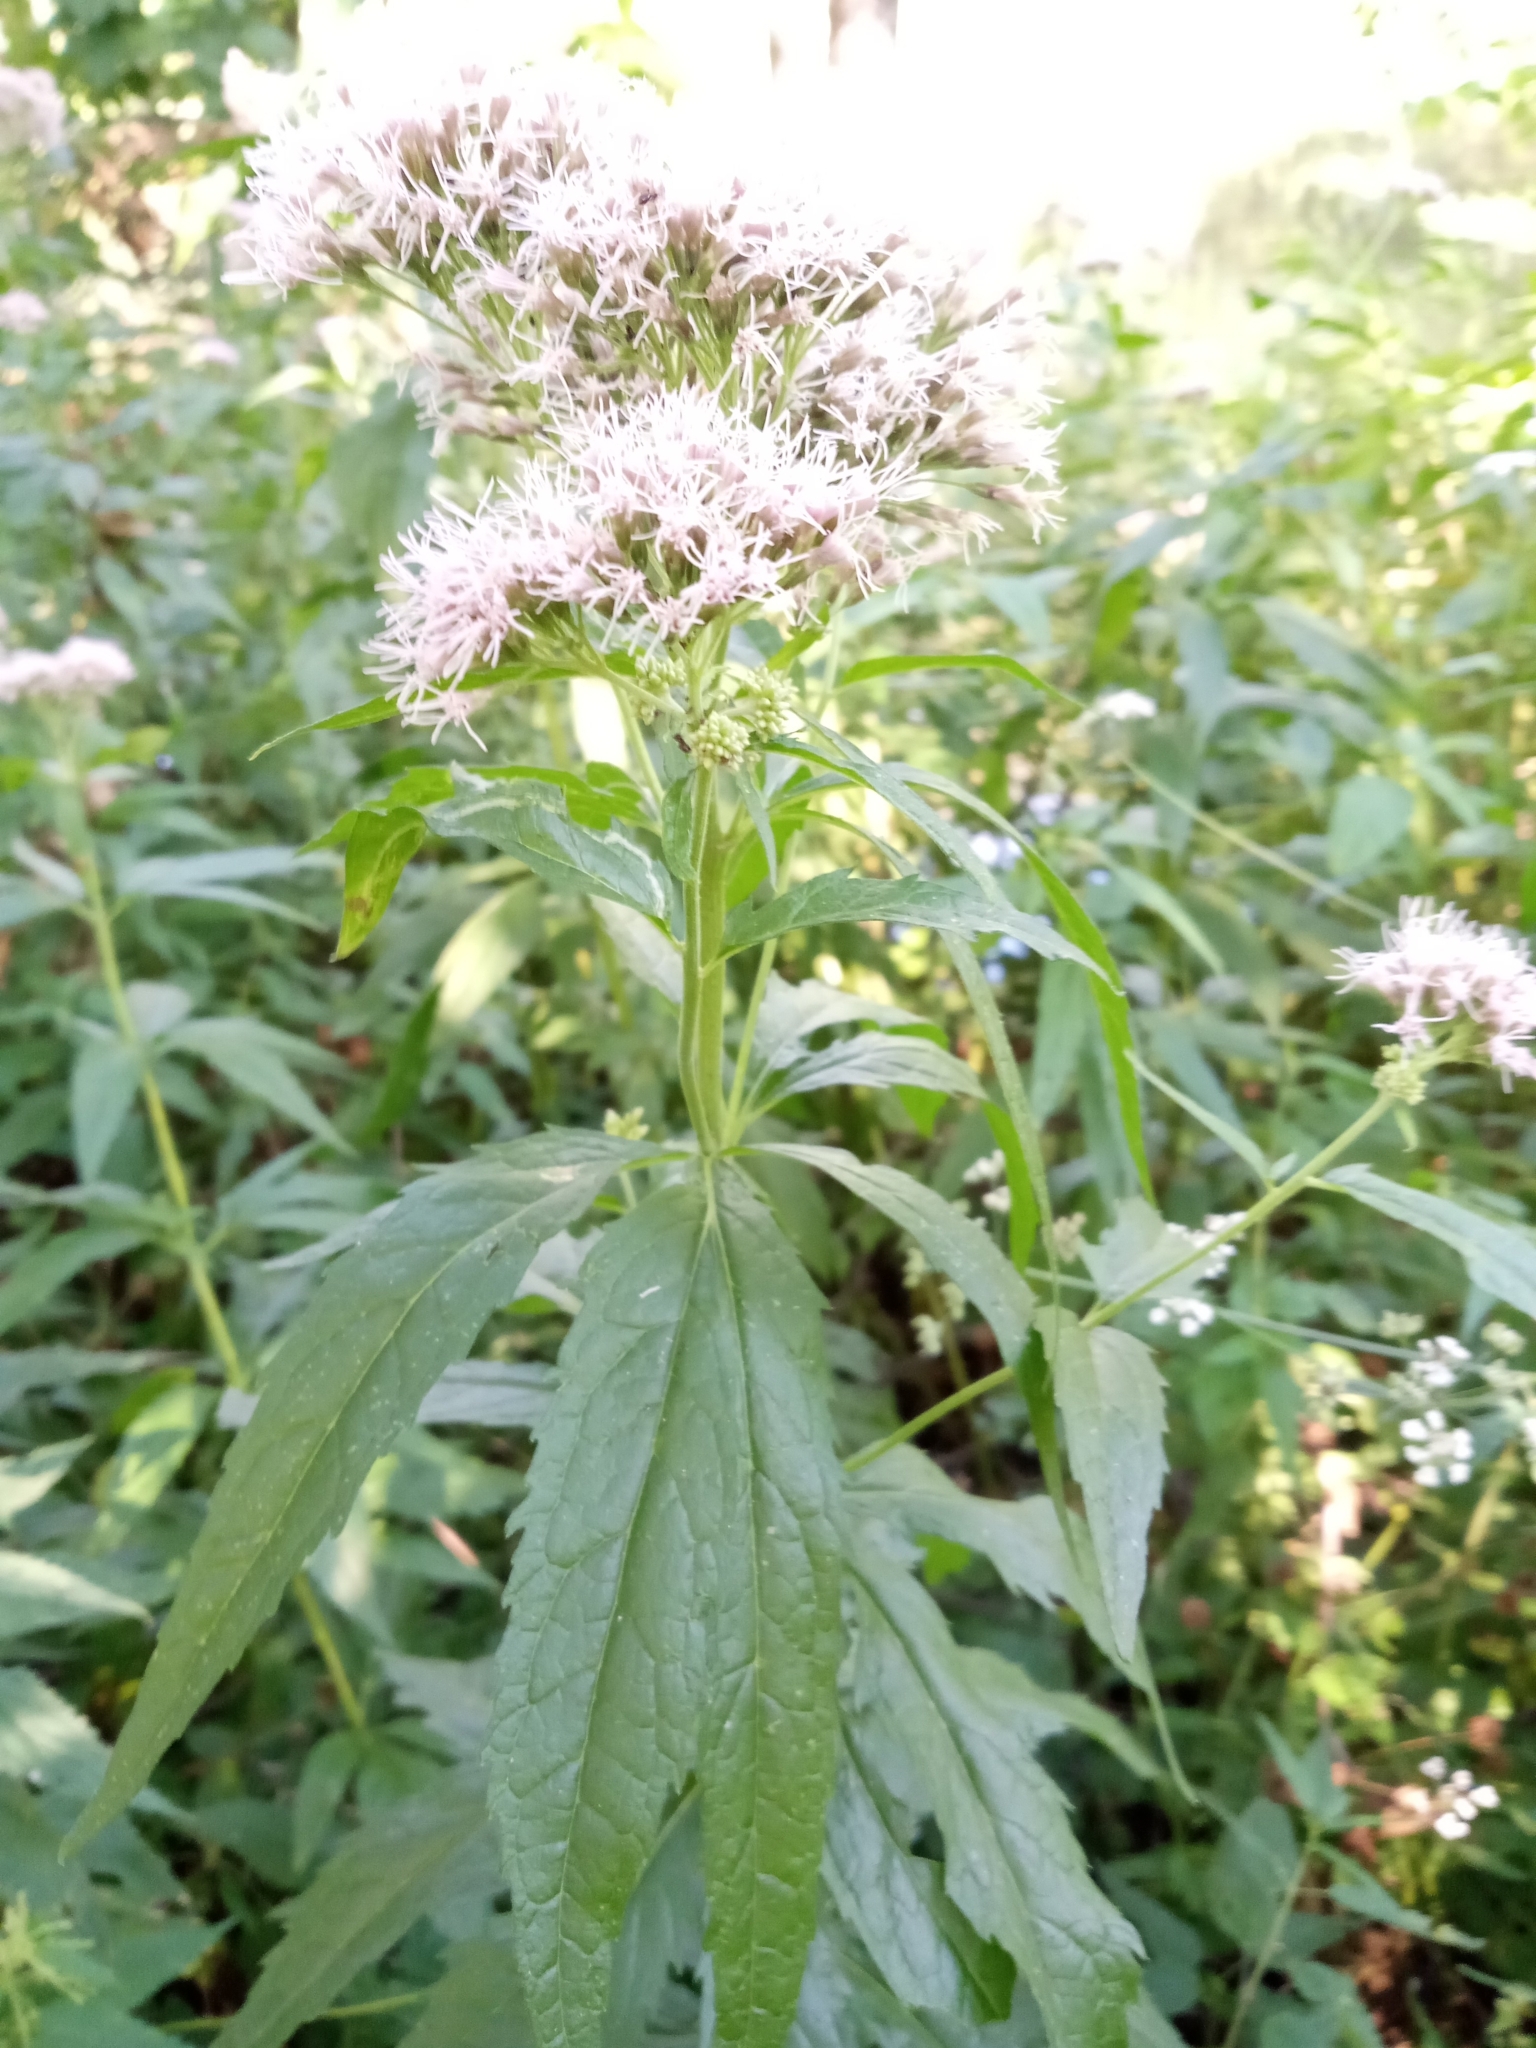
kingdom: Plantae
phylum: Tracheophyta
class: Magnoliopsida
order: Asterales
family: Asteraceae
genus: Eupatorium
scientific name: Eupatorium cannabinum
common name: Hemp-agrimony
